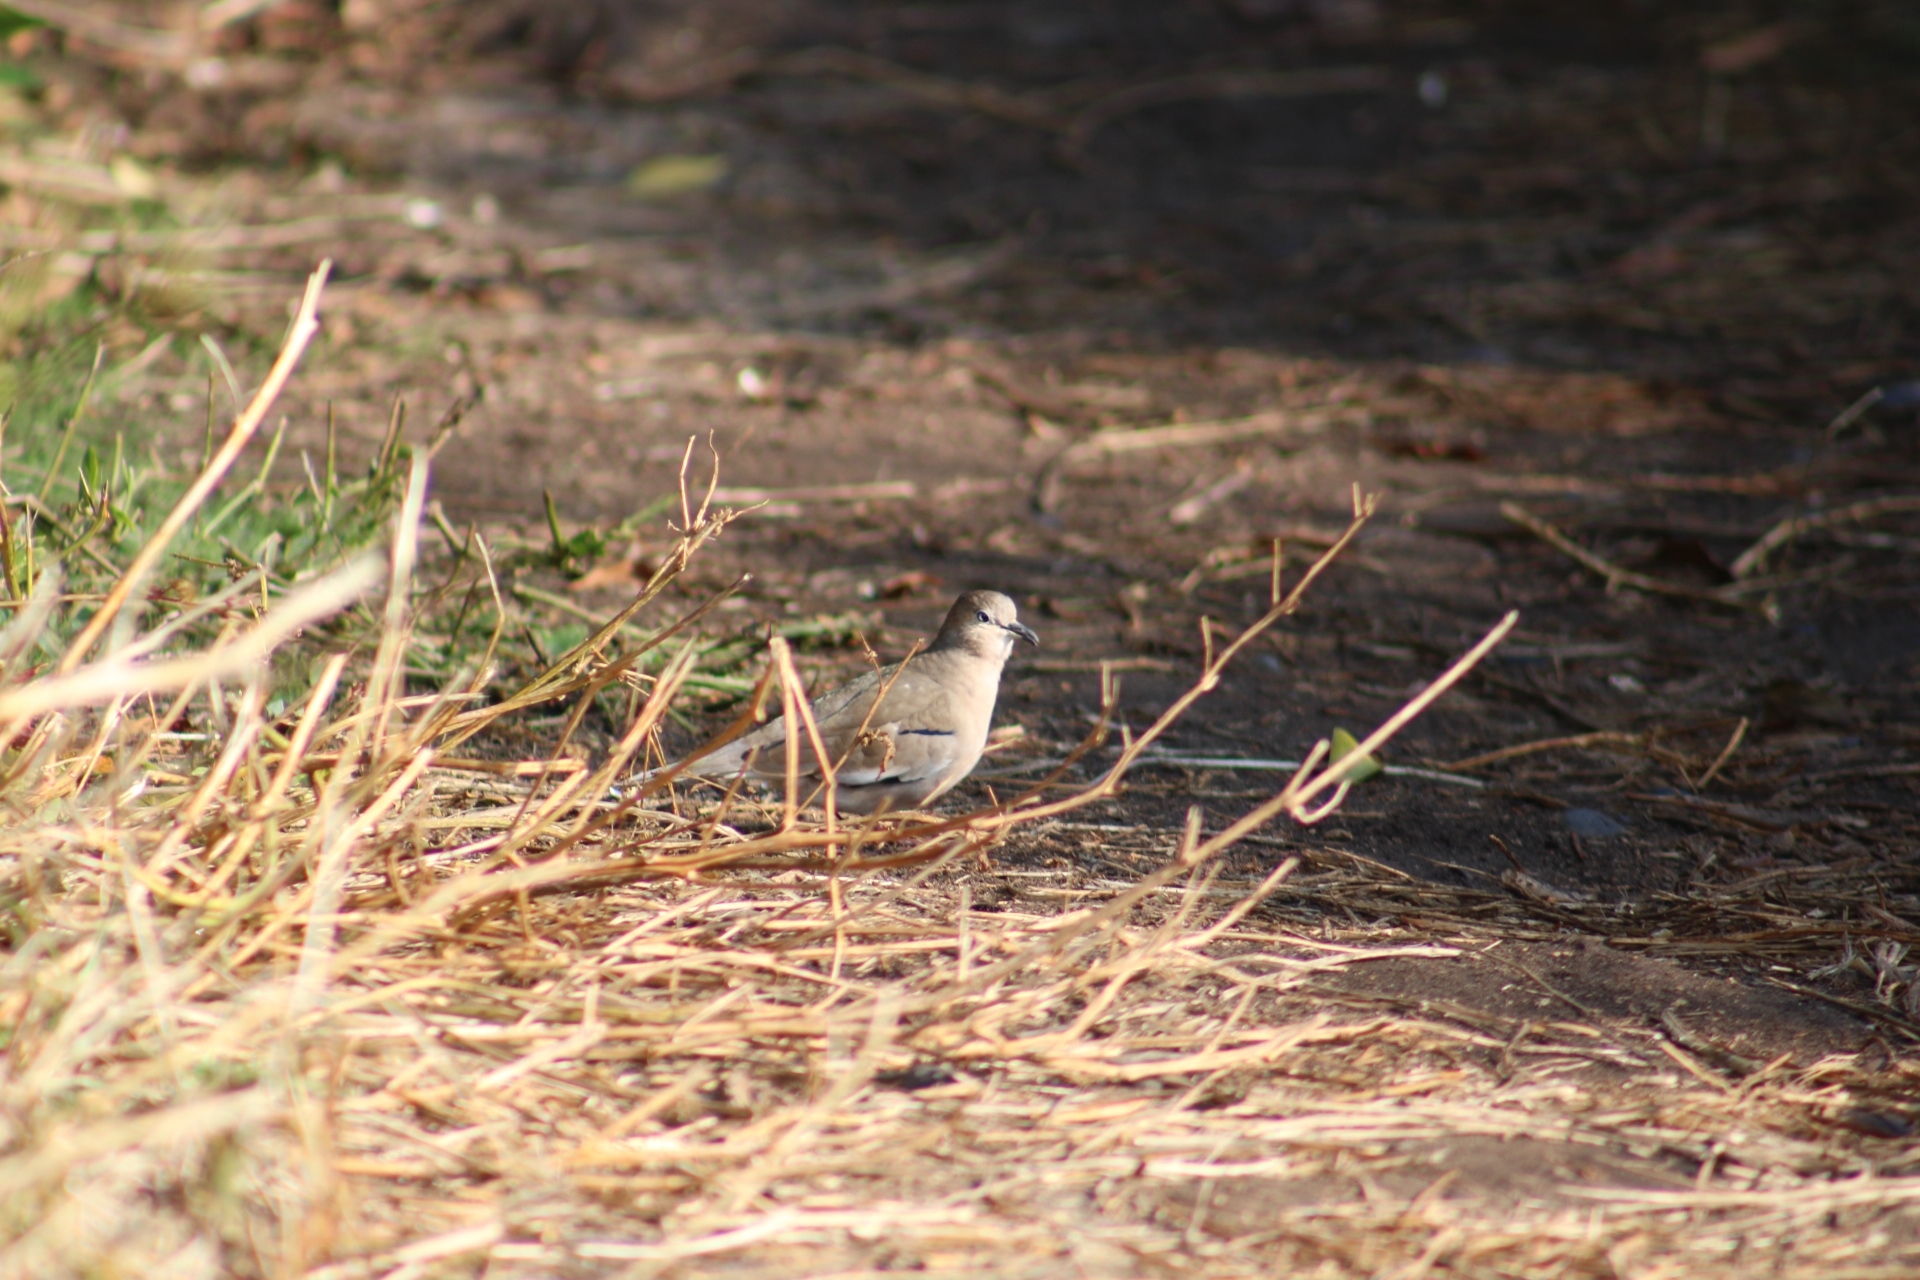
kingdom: Animalia
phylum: Chordata
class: Aves
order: Columbiformes
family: Columbidae
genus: Columbina
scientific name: Columbina picui
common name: Picui ground dove
